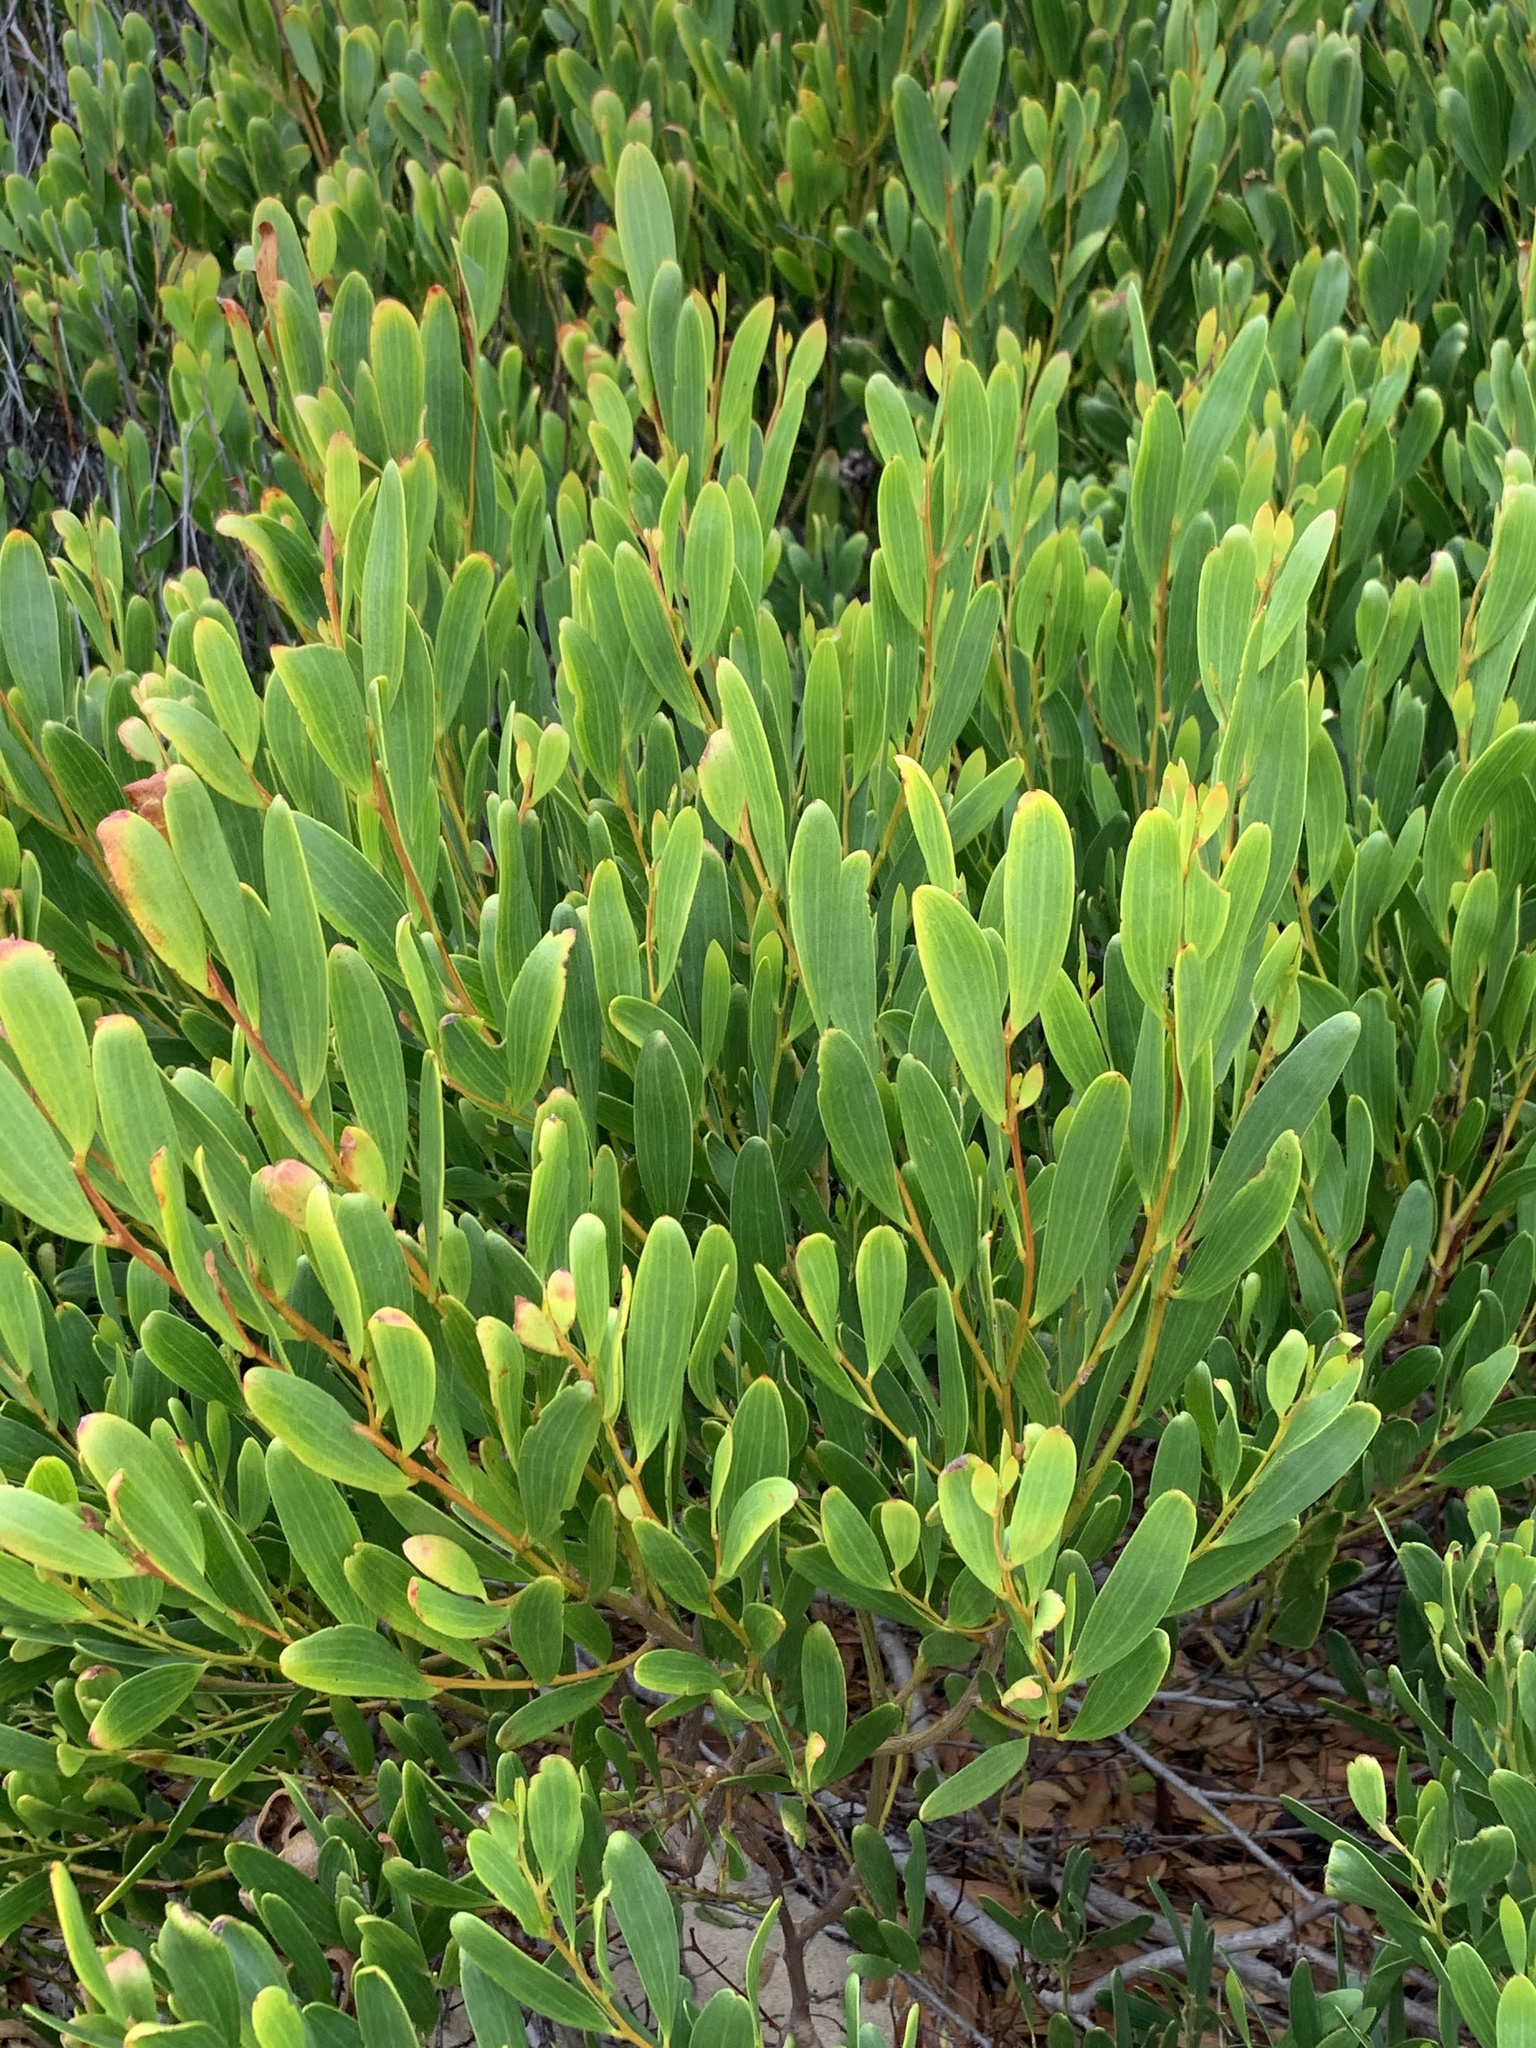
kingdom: Plantae
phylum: Tracheophyta
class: Magnoliopsida
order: Fabales
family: Fabaceae
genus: Acacia
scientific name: Acacia cyclops
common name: Coastal wattle
